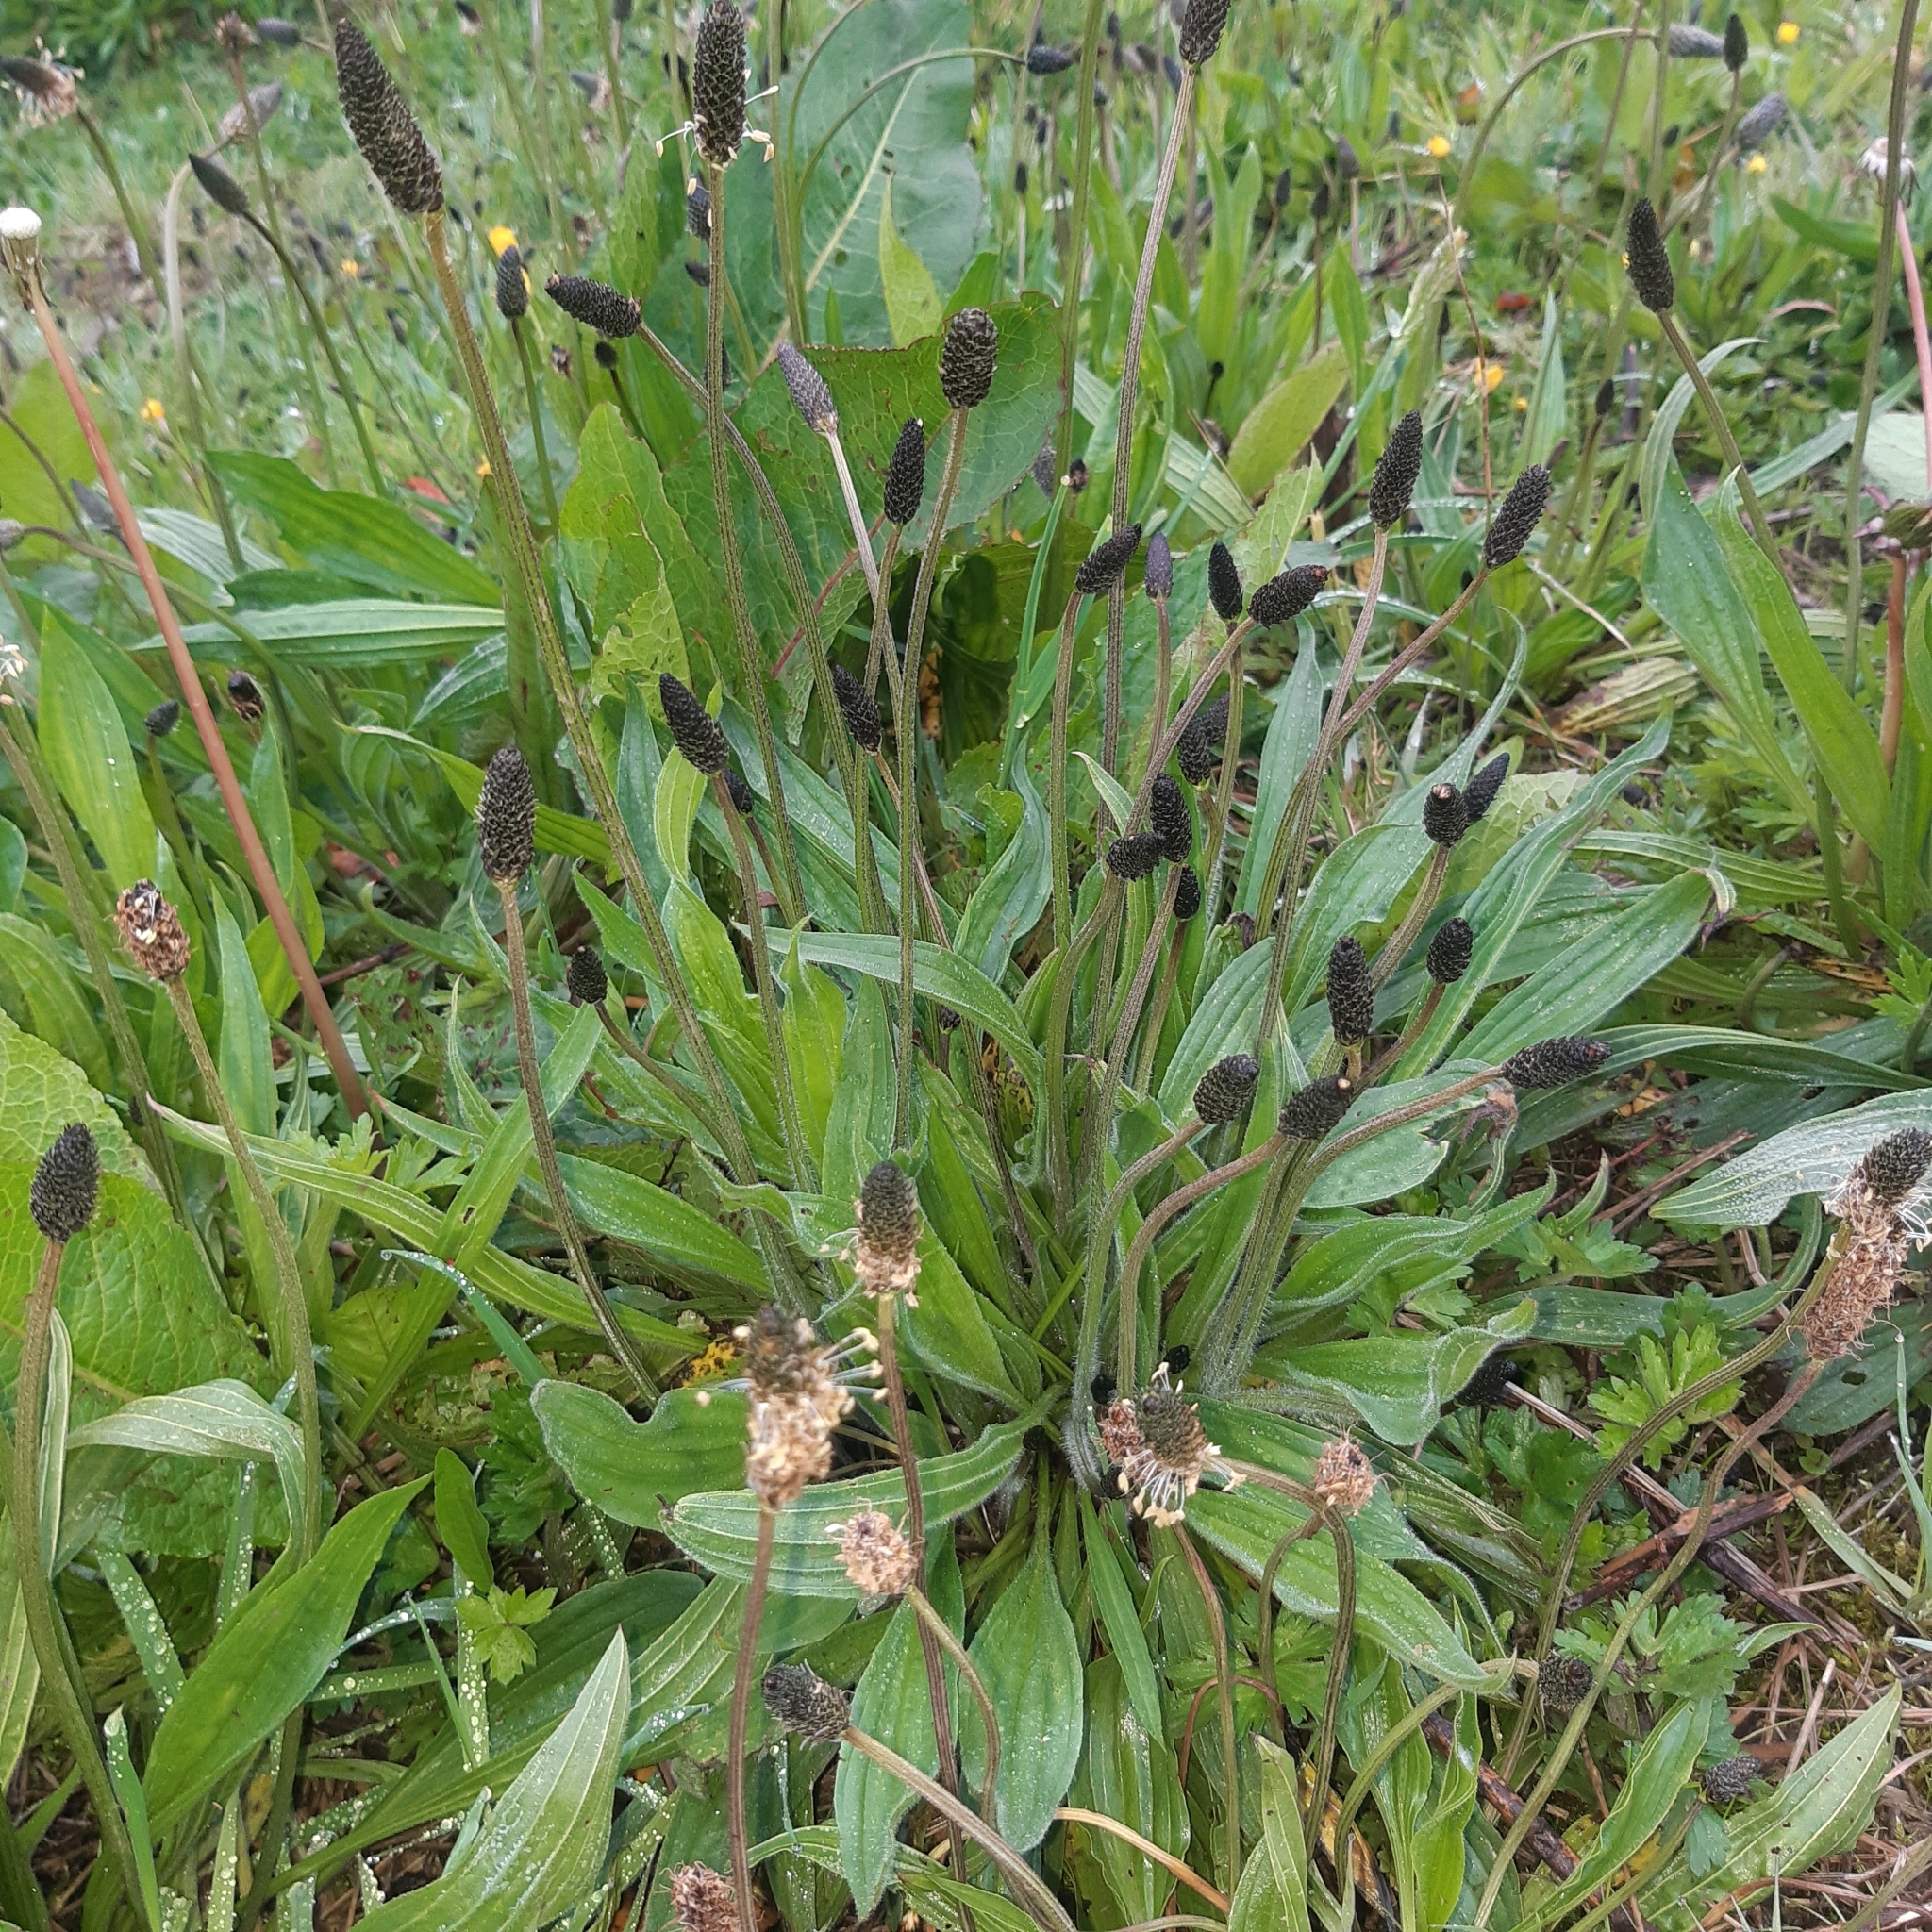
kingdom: Plantae
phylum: Tracheophyta
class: Magnoliopsida
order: Lamiales
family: Plantaginaceae
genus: Plantago
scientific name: Plantago lanceolata
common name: Ribwort plantain
